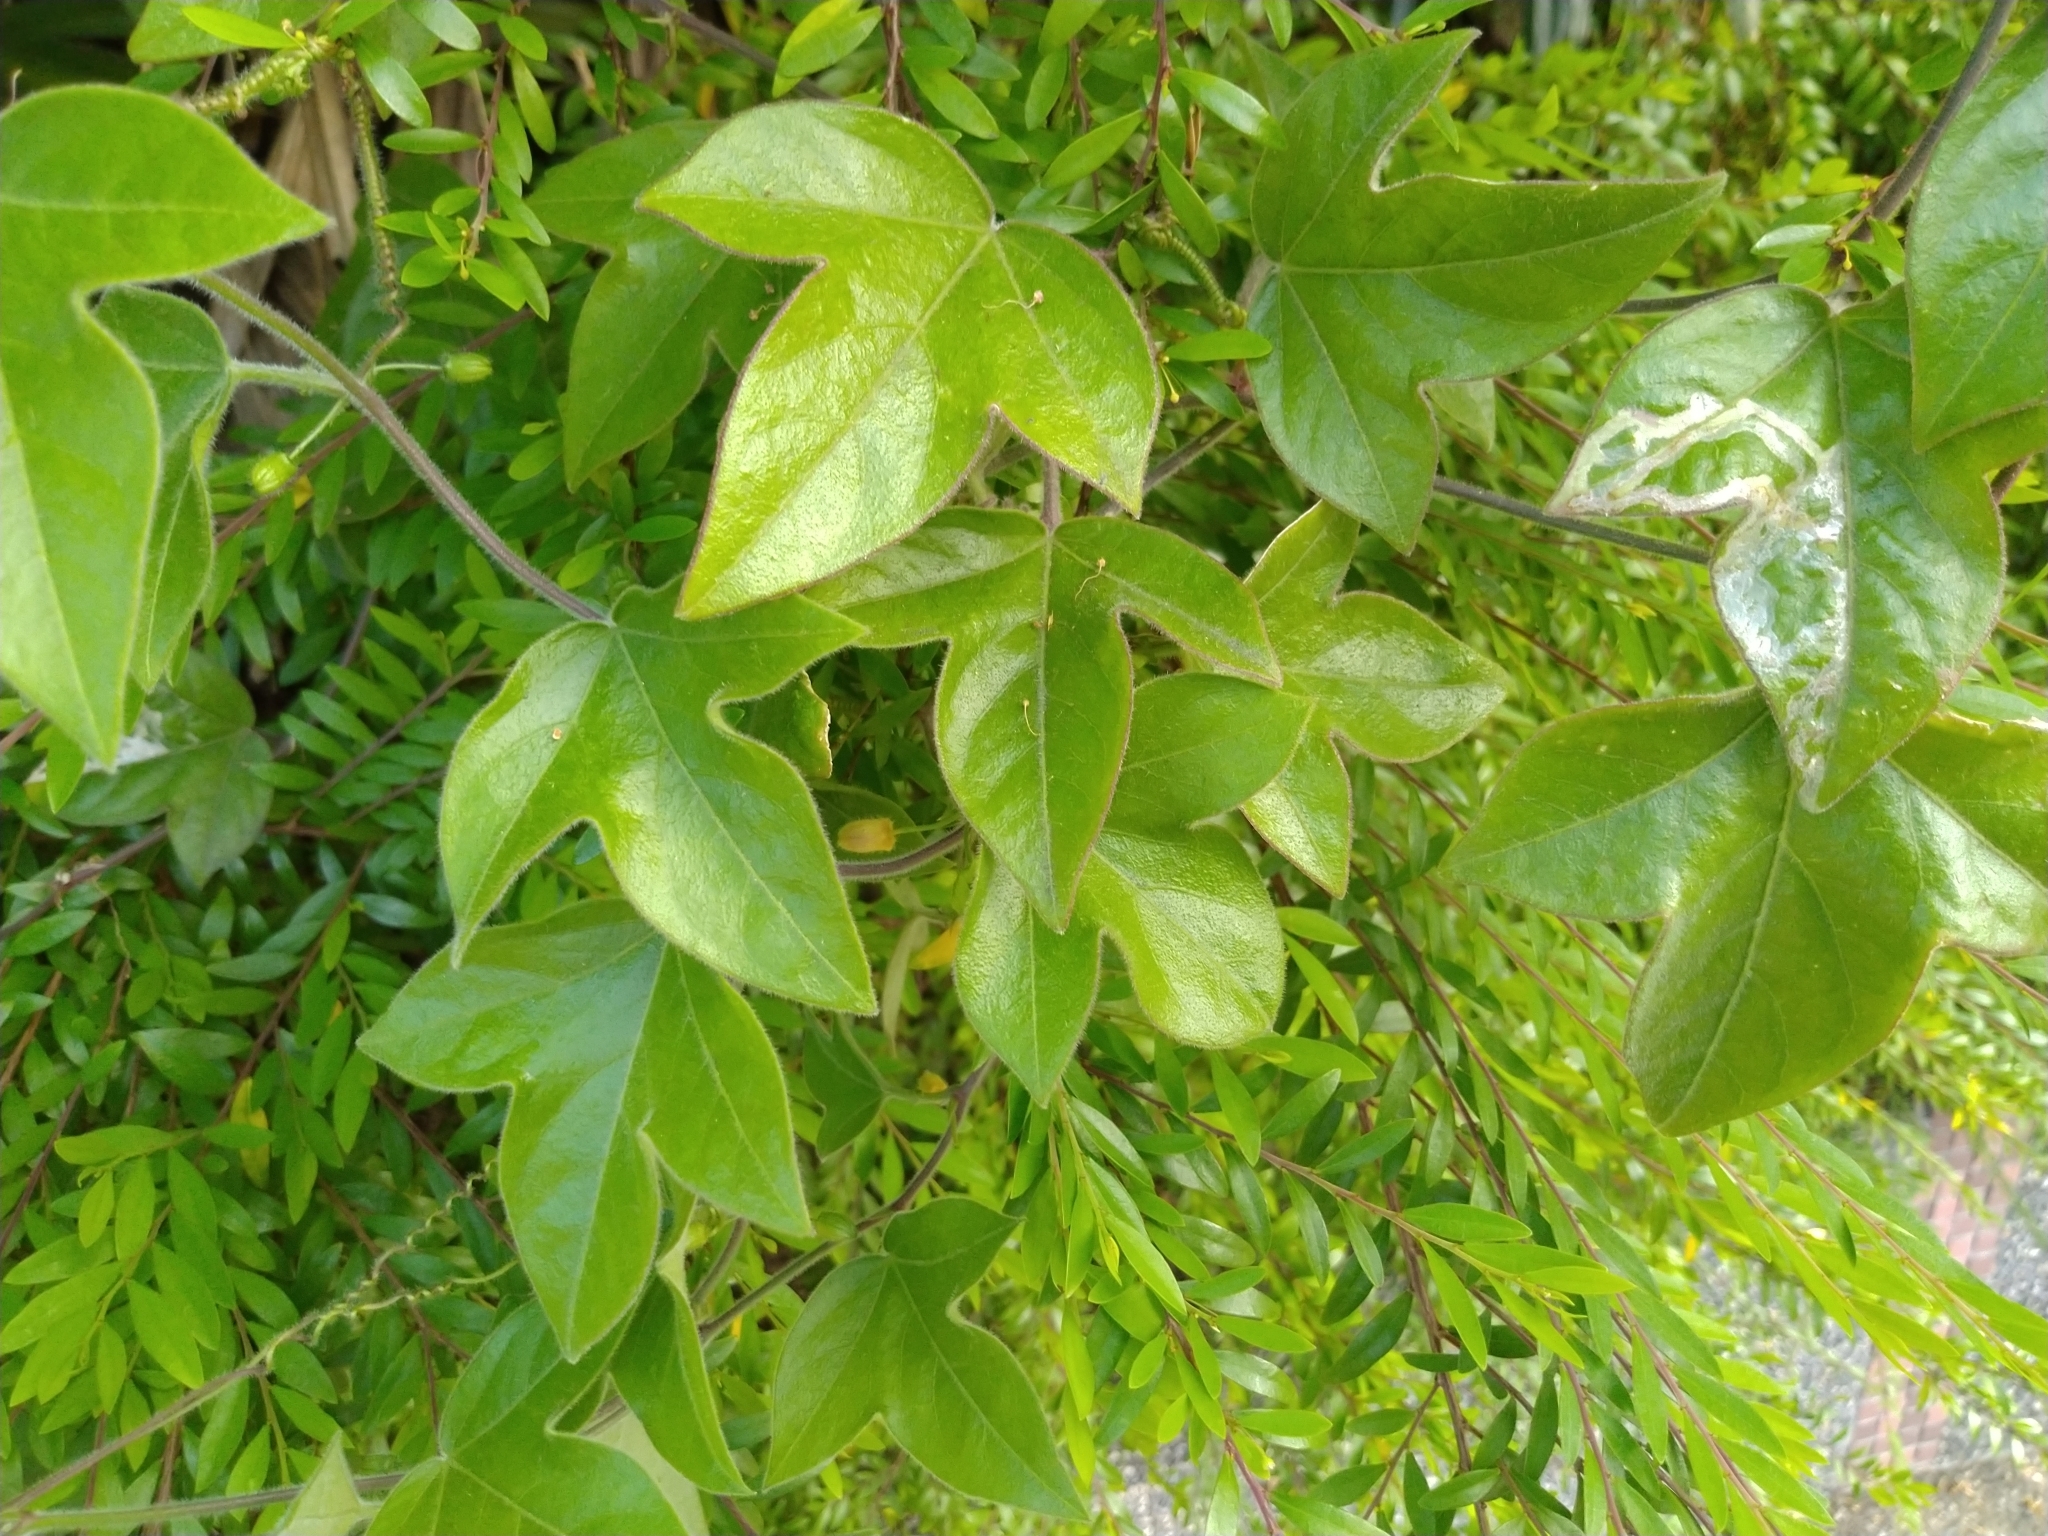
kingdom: Plantae
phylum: Tracheophyta
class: Magnoliopsida
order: Malpighiales
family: Passifloraceae
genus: Passiflora
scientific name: Passiflora suberosa
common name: Wild passionfruit
